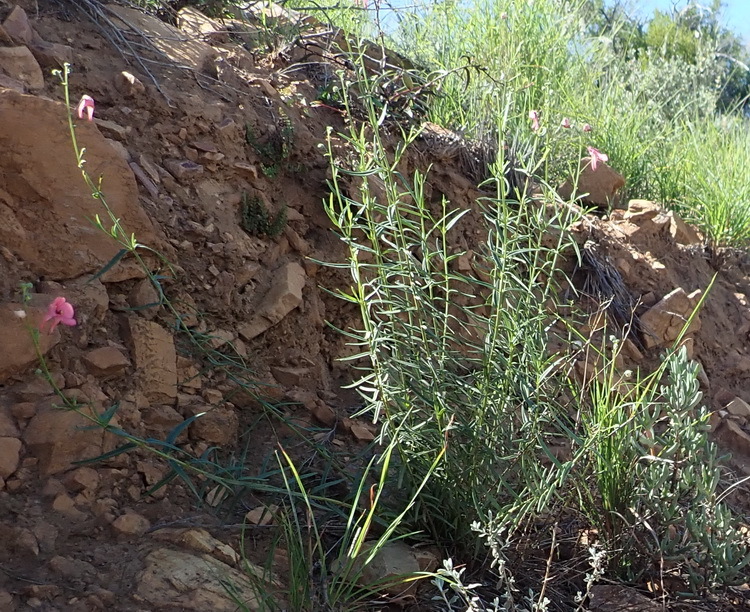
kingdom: Plantae
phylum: Tracheophyta
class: Magnoliopsida
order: Lamiales
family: Scrophulariaceae
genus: Diascia
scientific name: Diascia patens
